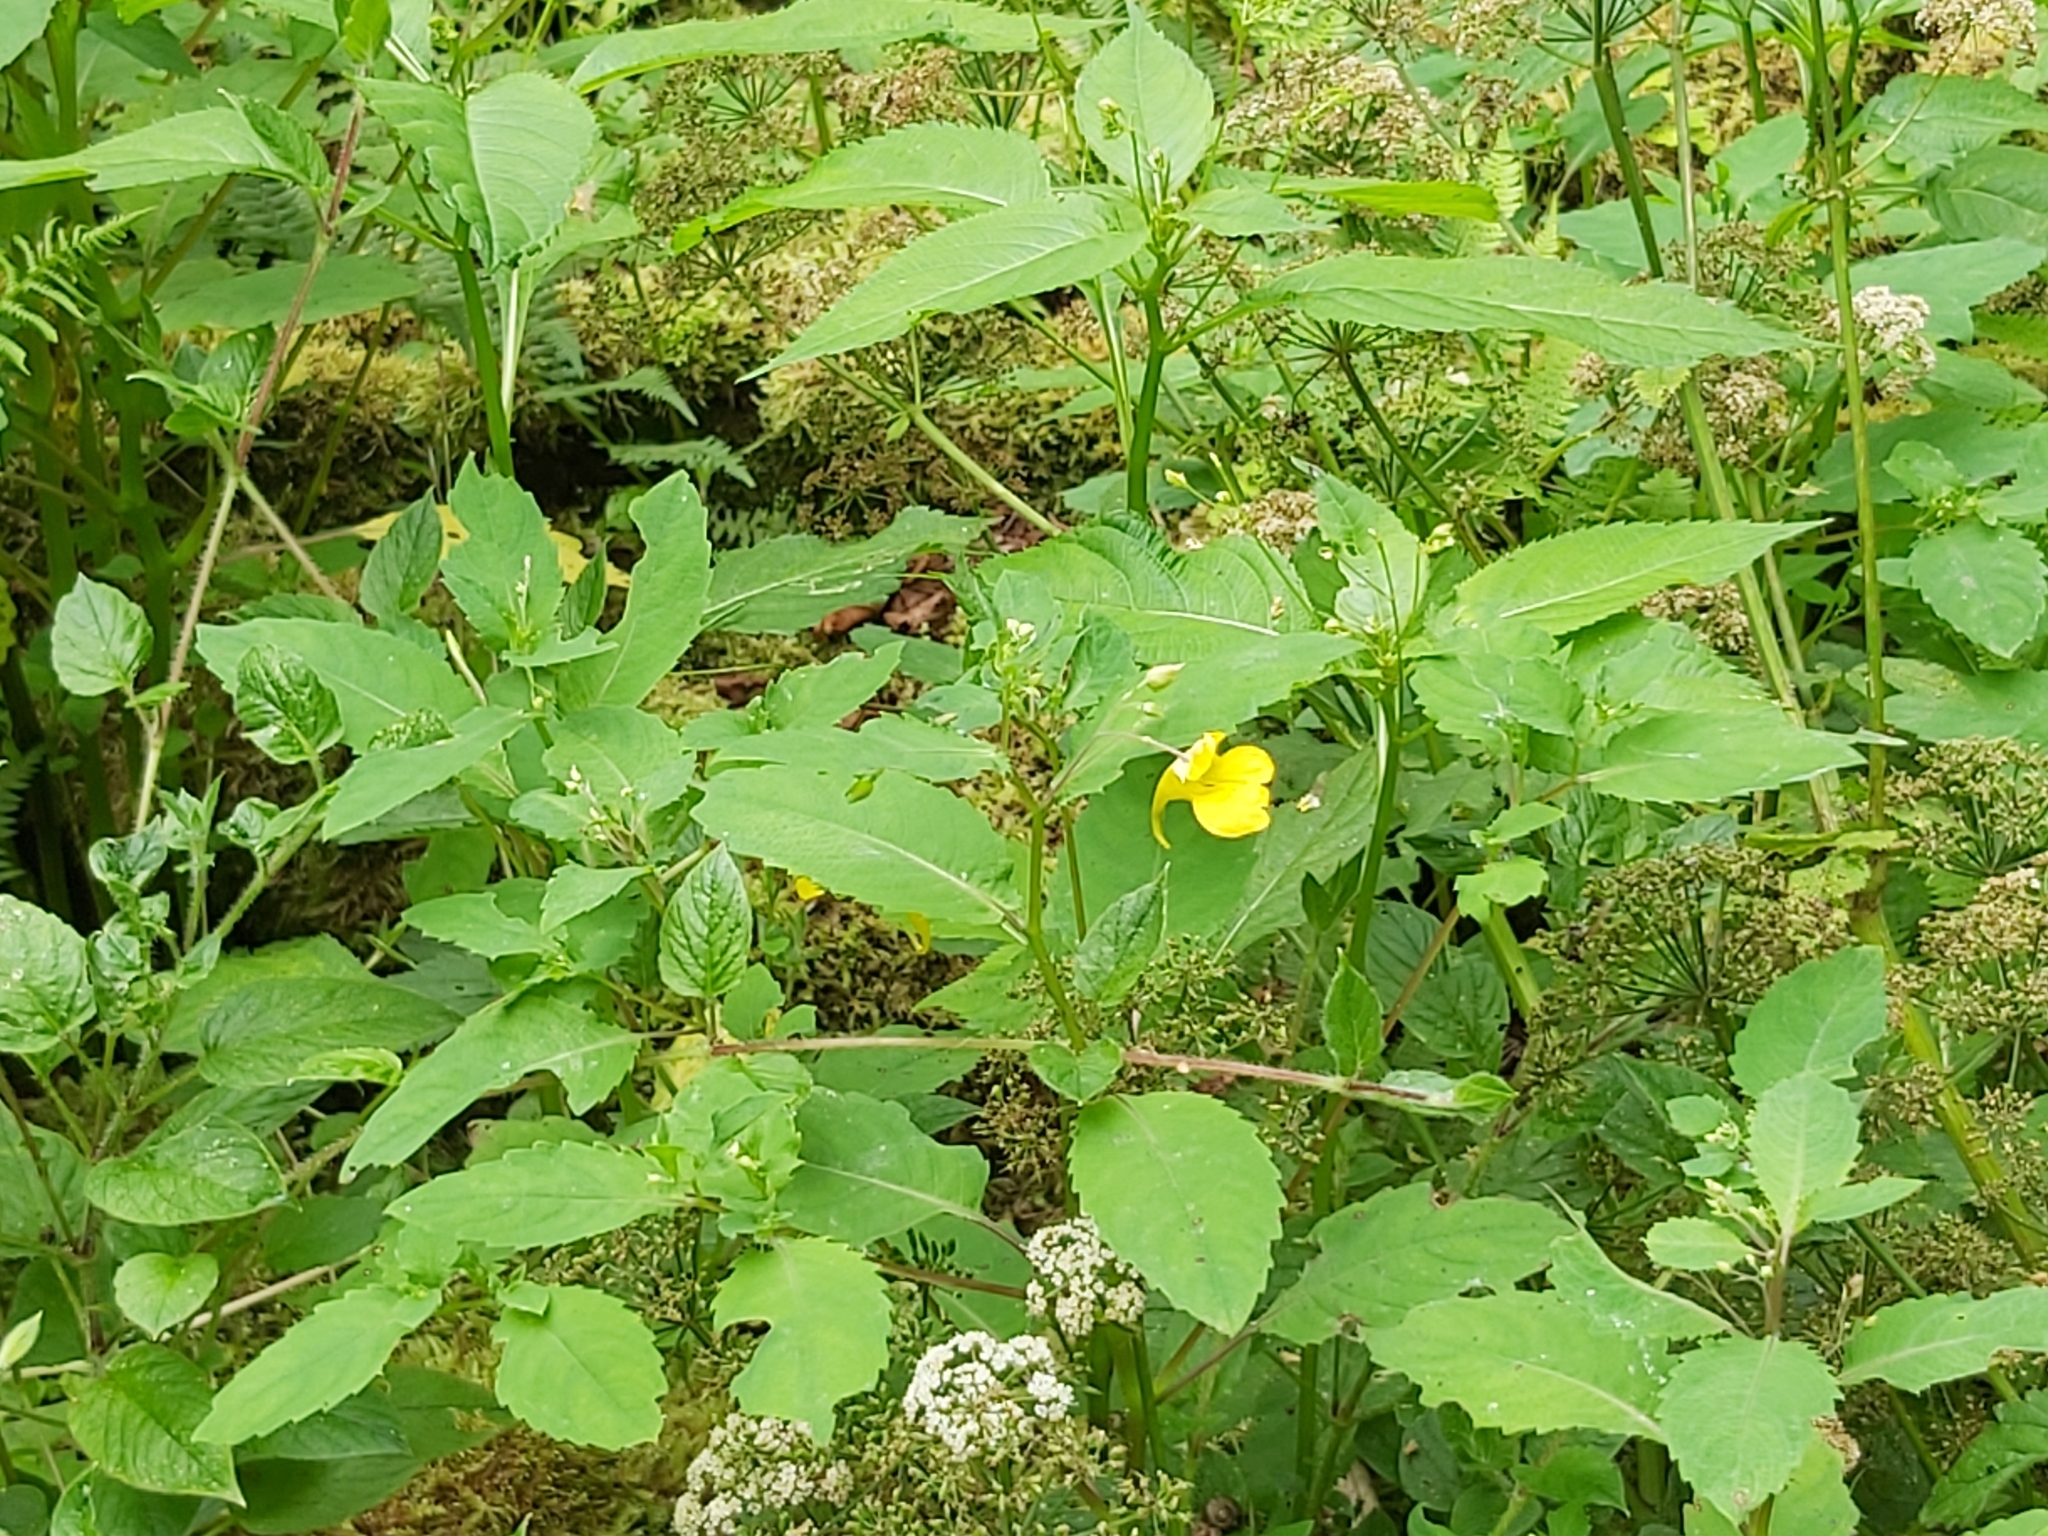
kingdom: Plantae
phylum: Tracheophyta
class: Magnoliopsida
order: Ericales
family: Balsaminaceae
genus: Impatiens
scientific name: Impatiens noli-tangere
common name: Touch-me-not balsam
